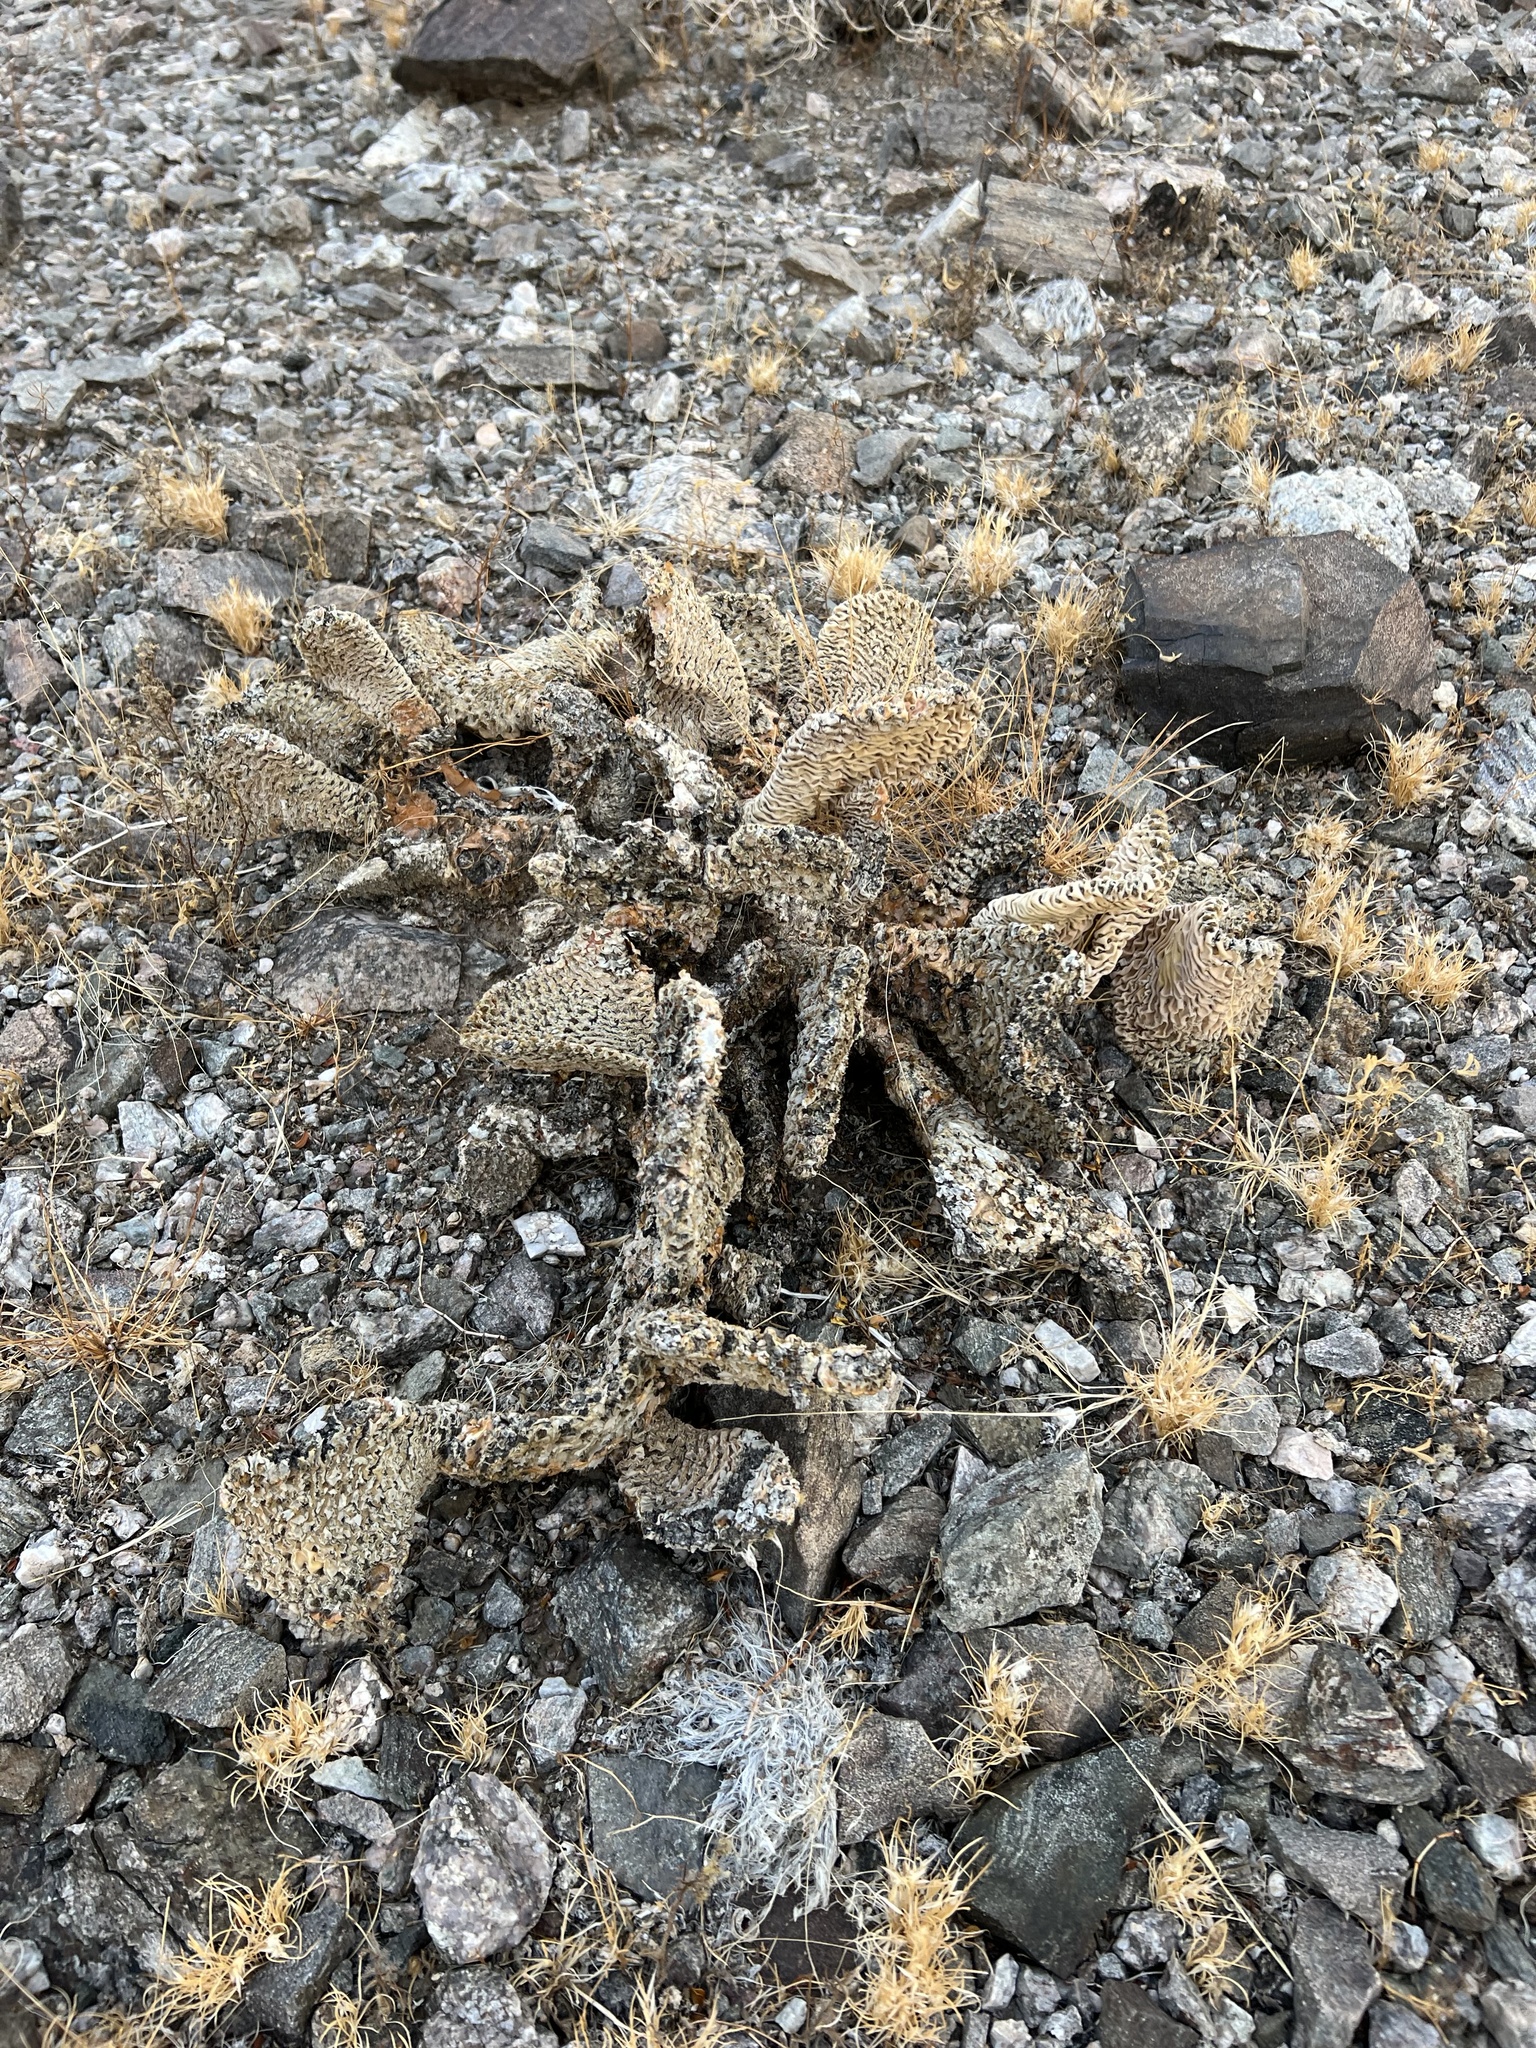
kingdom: Plantae
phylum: Tracheophyta
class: Magnoliopsida
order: Caryophyllales
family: Cactaceae
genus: Opuntia
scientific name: Opuntia basilaris
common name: Beavertail prickly-pear
